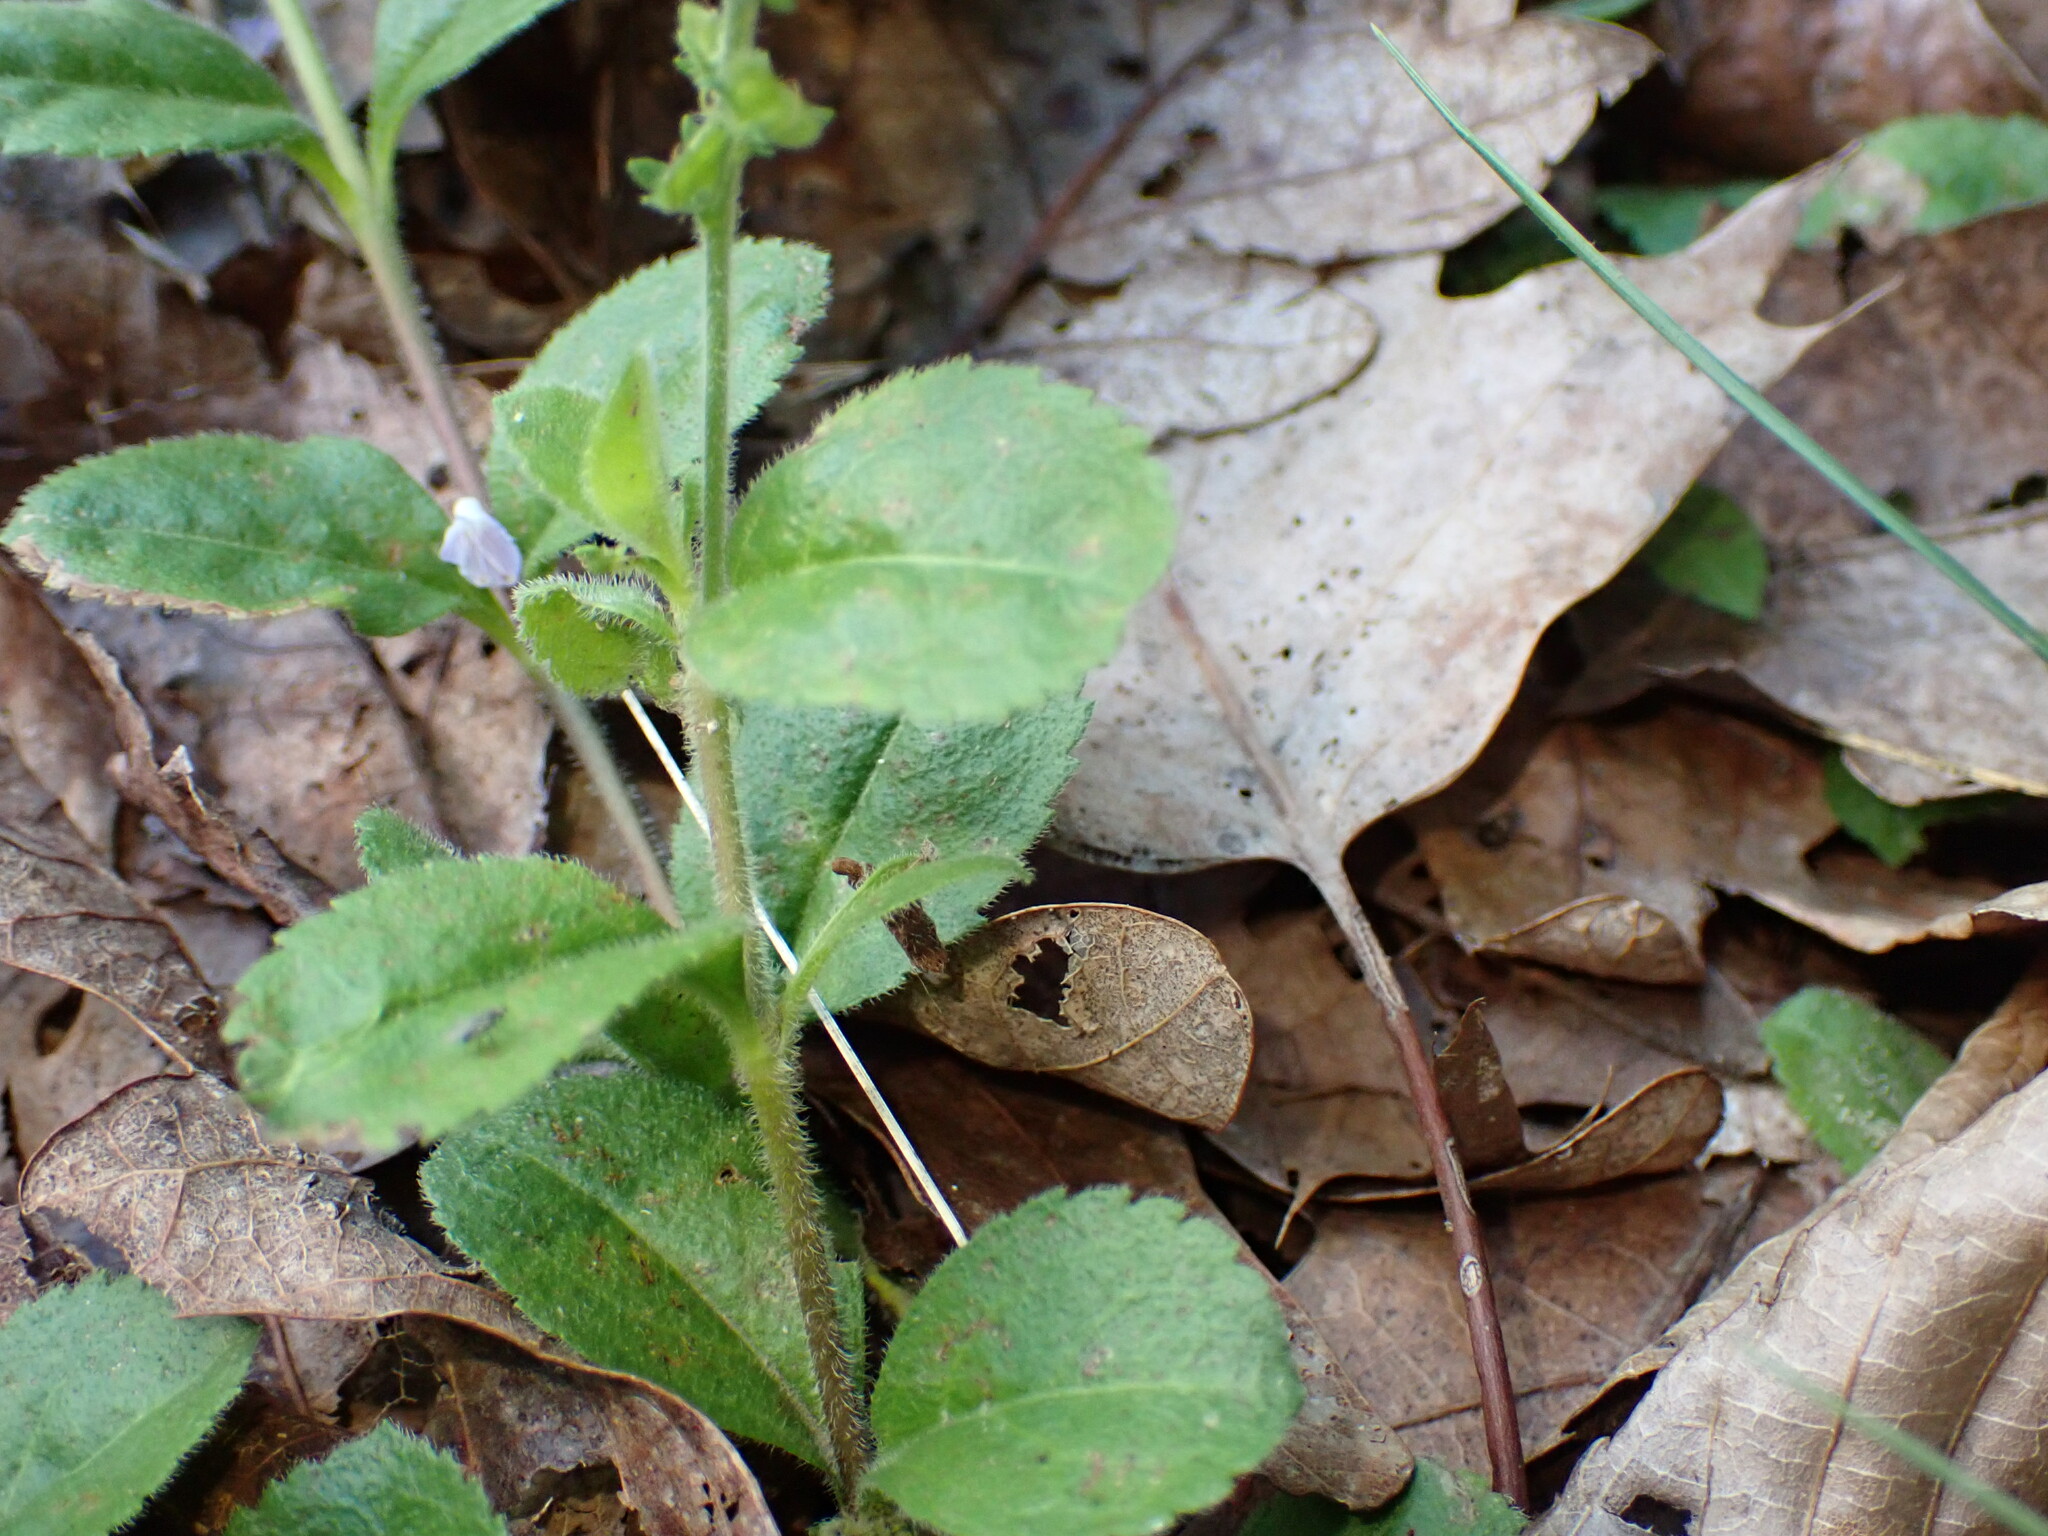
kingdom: Plantae
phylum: Tracheophyta
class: Magnoliopsida
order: Lamiales
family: Plantaginaceae
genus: Veronica
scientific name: Veronica officinalis
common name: Common speedwell
